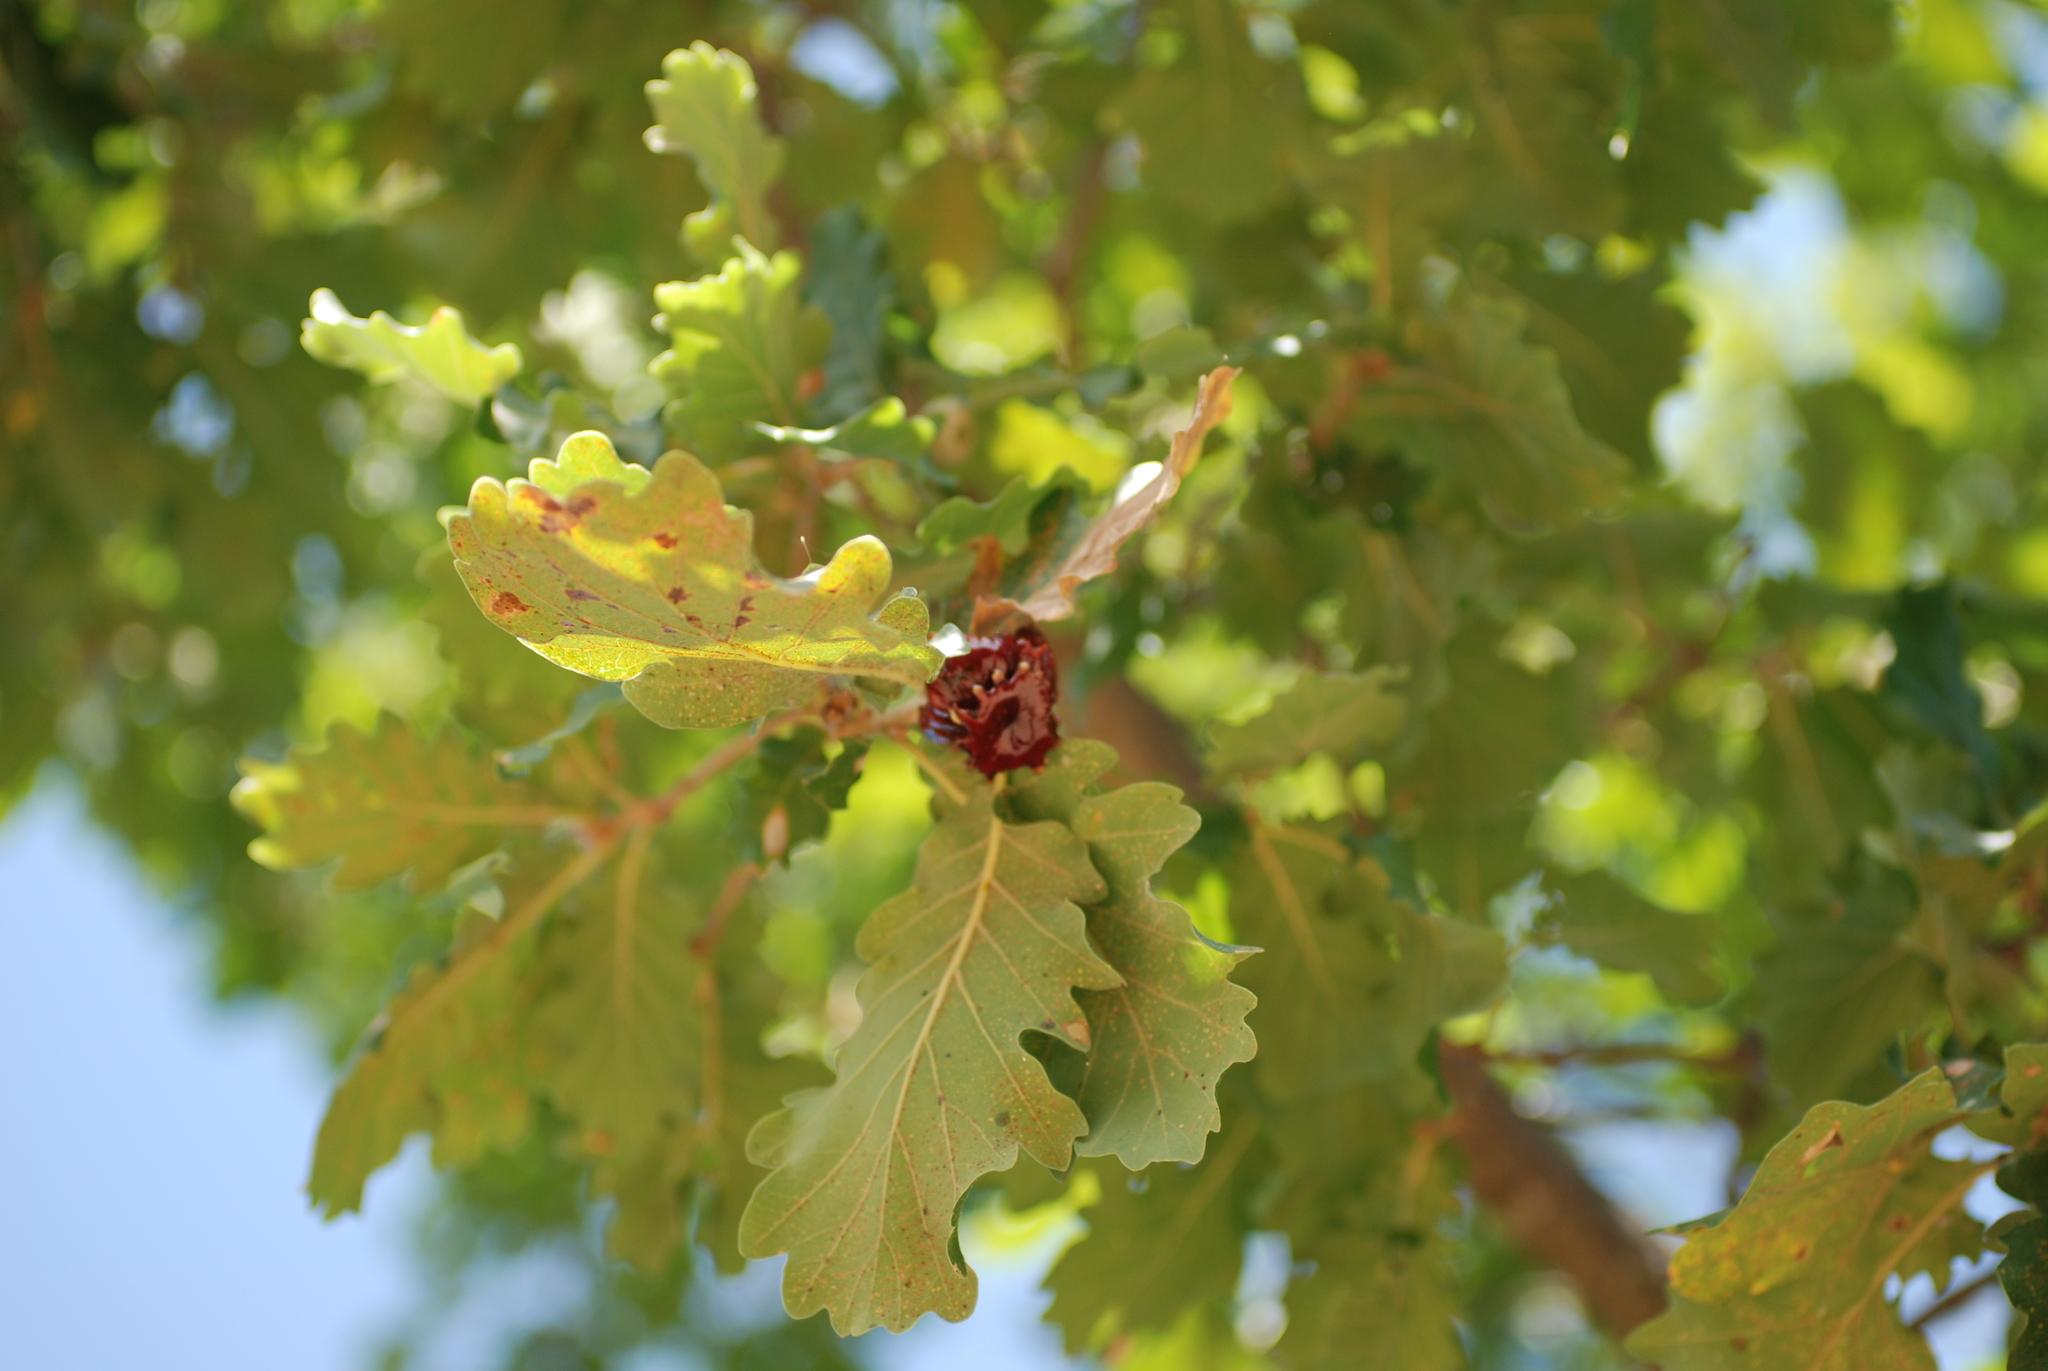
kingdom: Animalia
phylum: Arthropoda
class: Insecta
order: Hymenoptera
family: Cynipidae
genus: Andricus
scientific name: Andricus dentimitratus
